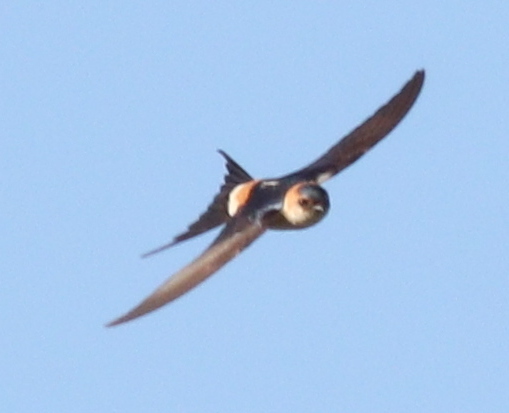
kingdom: Animalia
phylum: Chordata
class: Aves
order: Passeriformes
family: Hirundinidae
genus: Cecropis
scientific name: Cecropis daurica
